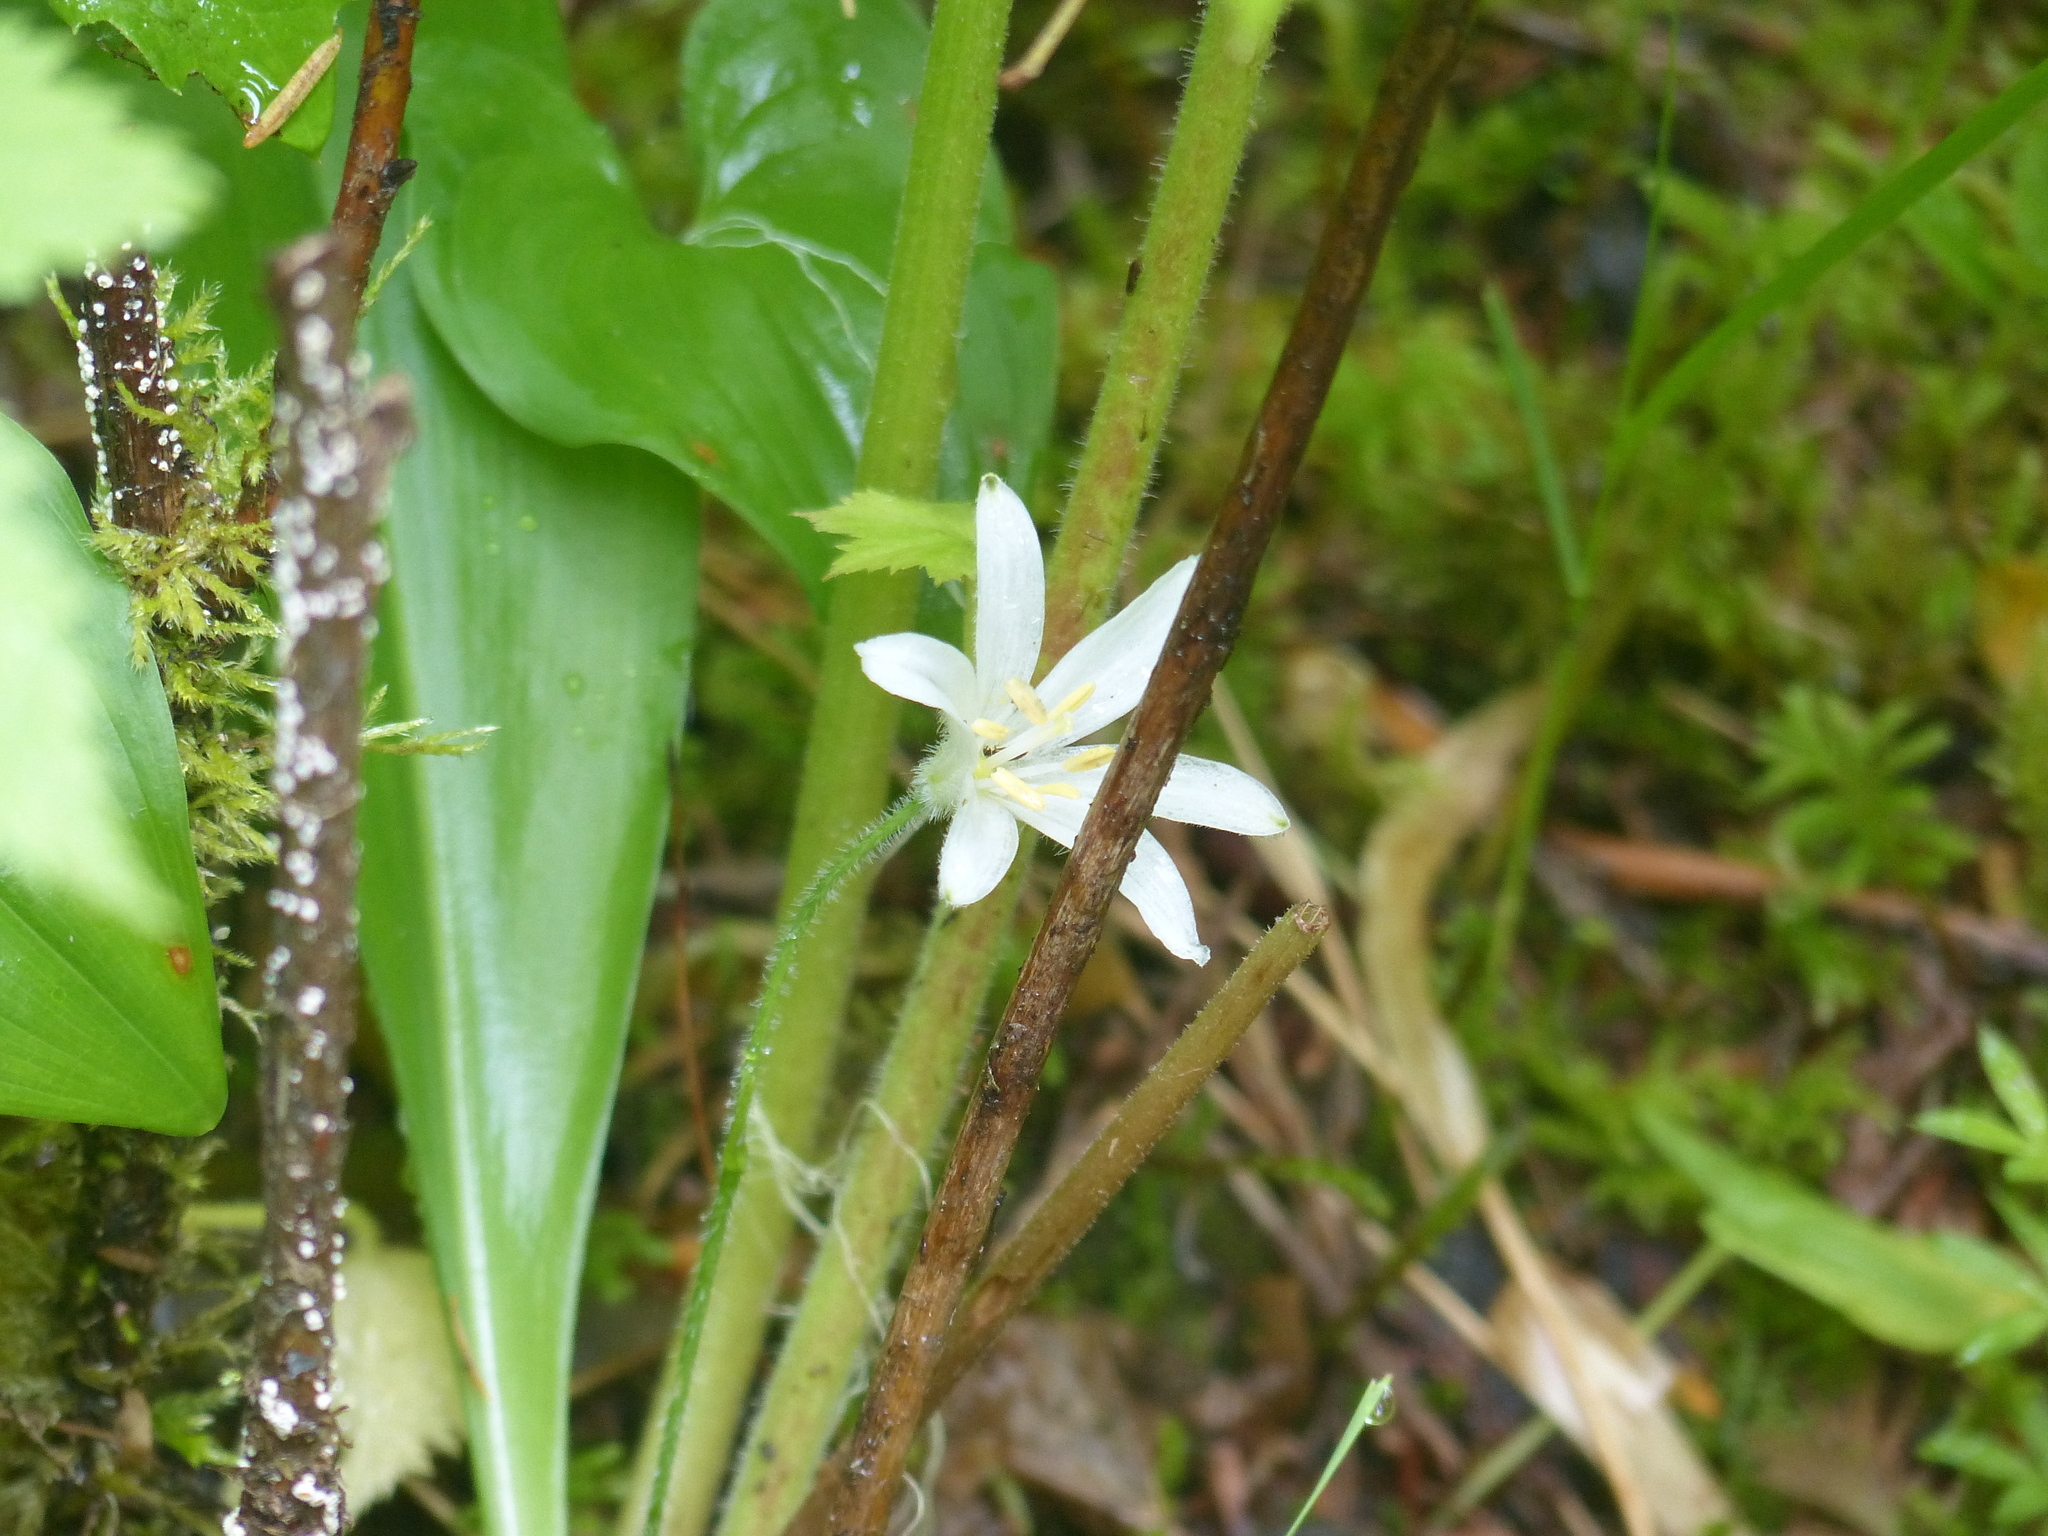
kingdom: Plantae
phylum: Tracheophyta
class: Liliopsida
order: Liliales
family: Liliaceae
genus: Clintonia
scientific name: Clintonia uniflora
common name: Queen's cup
